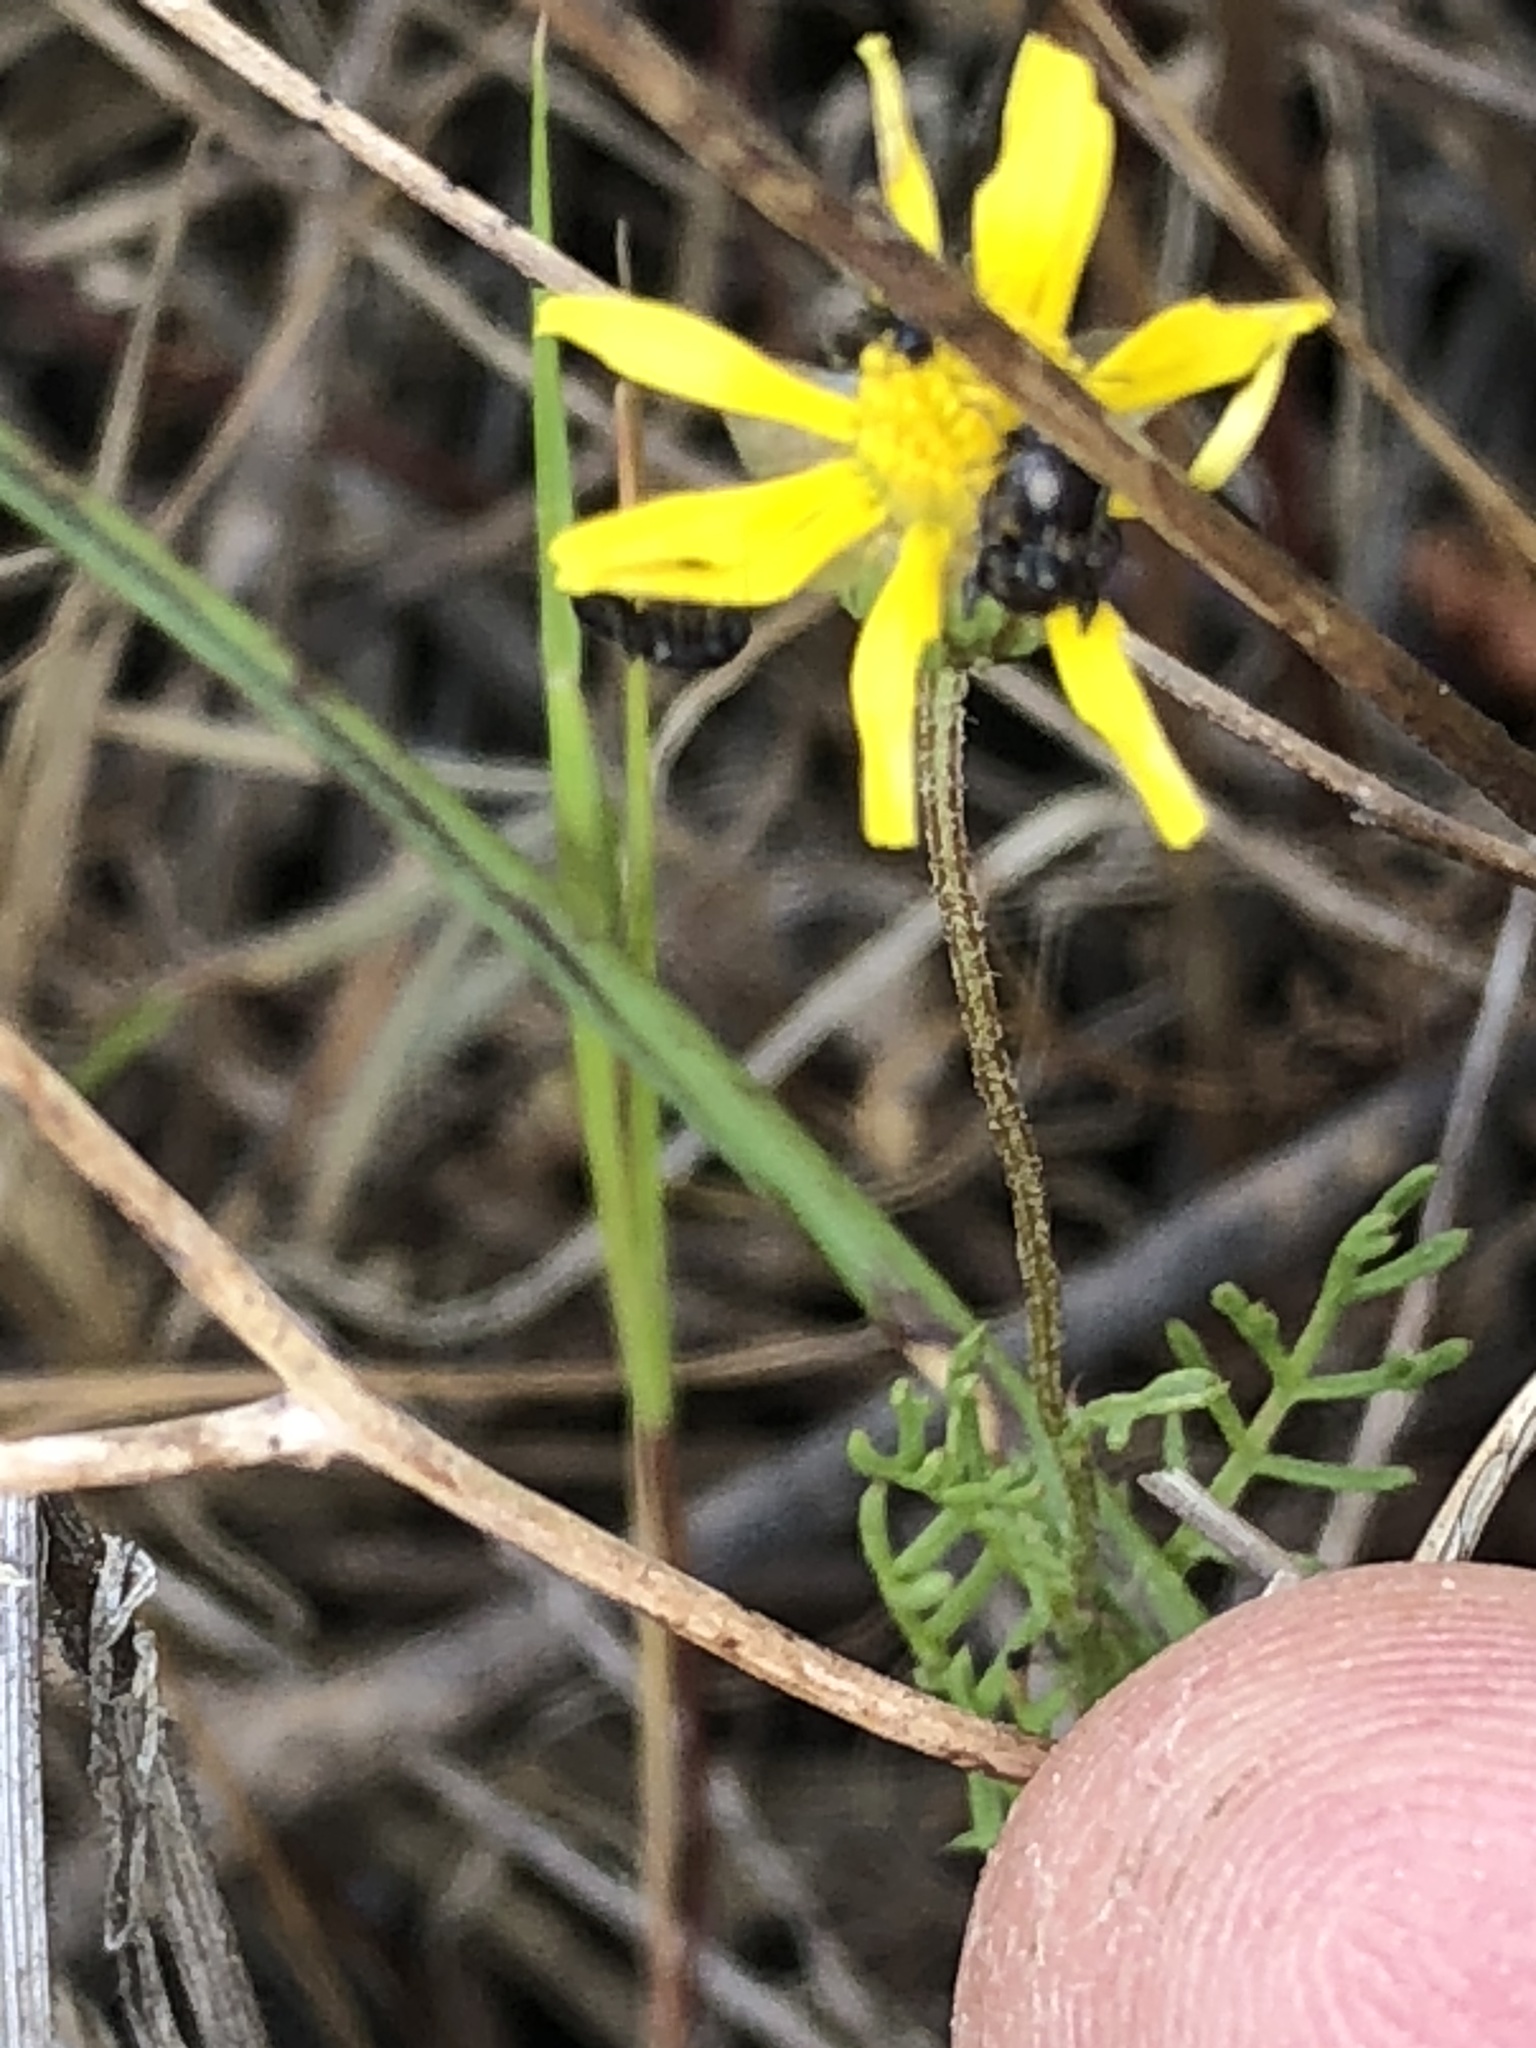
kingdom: Plantae
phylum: Tracheophyta
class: Magnoliopsida
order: Asterales
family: Asteraceae
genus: Ursinia
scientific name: Ursinia nana
